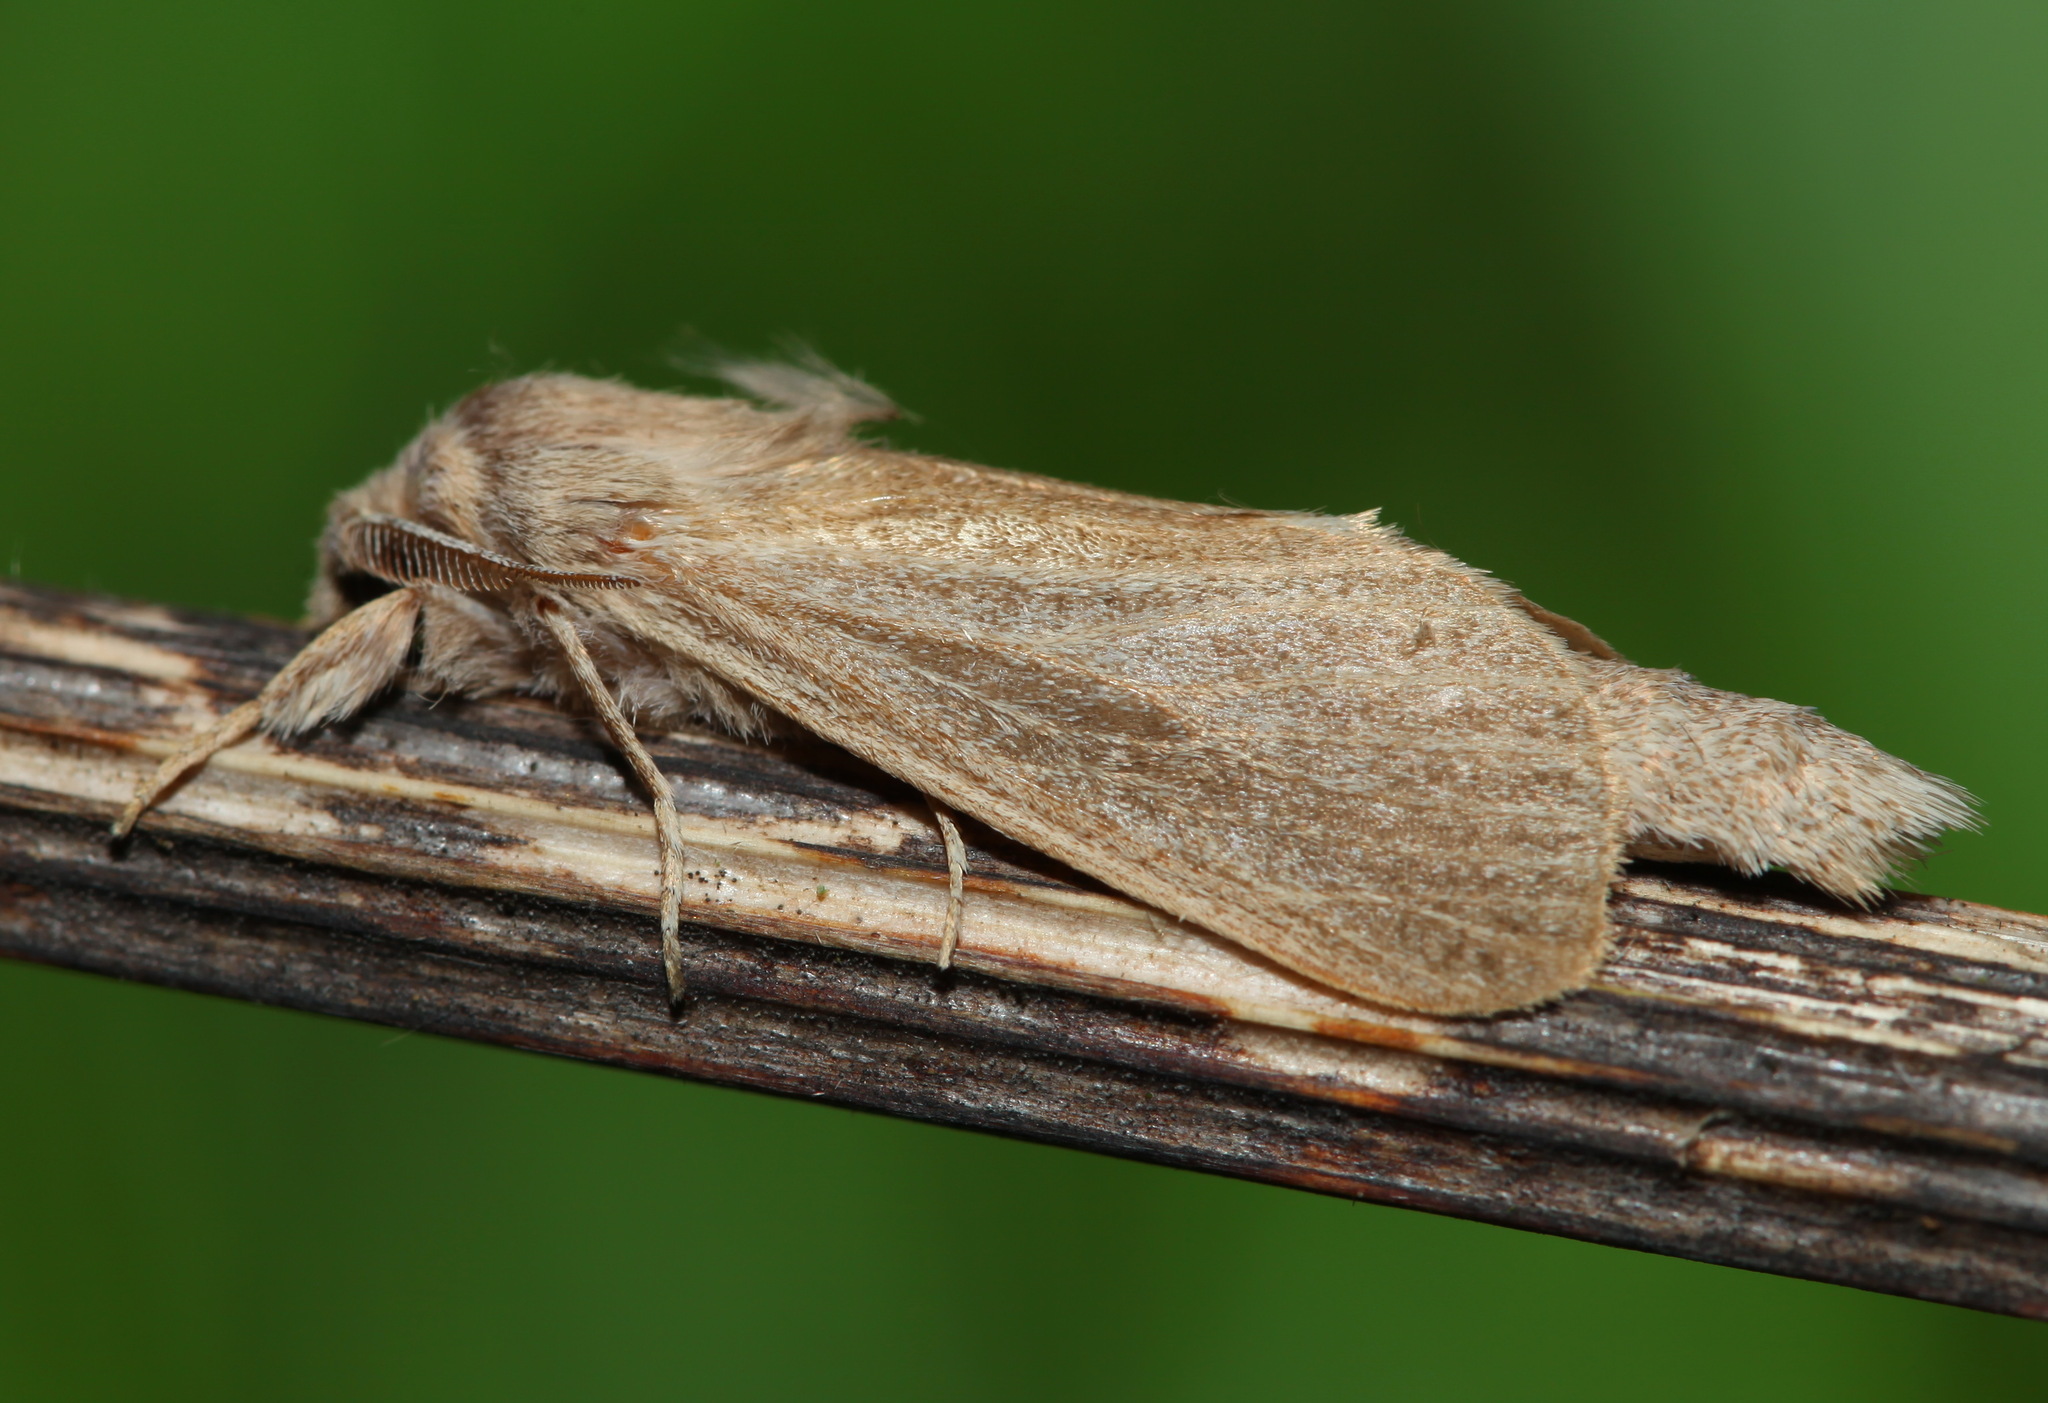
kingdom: Animalia
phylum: Arthropoda
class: Insecta
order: Lepidoptera
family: Cossidae
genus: Phragmataecia
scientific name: Phragmataecia castaneae
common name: Reed leopard
